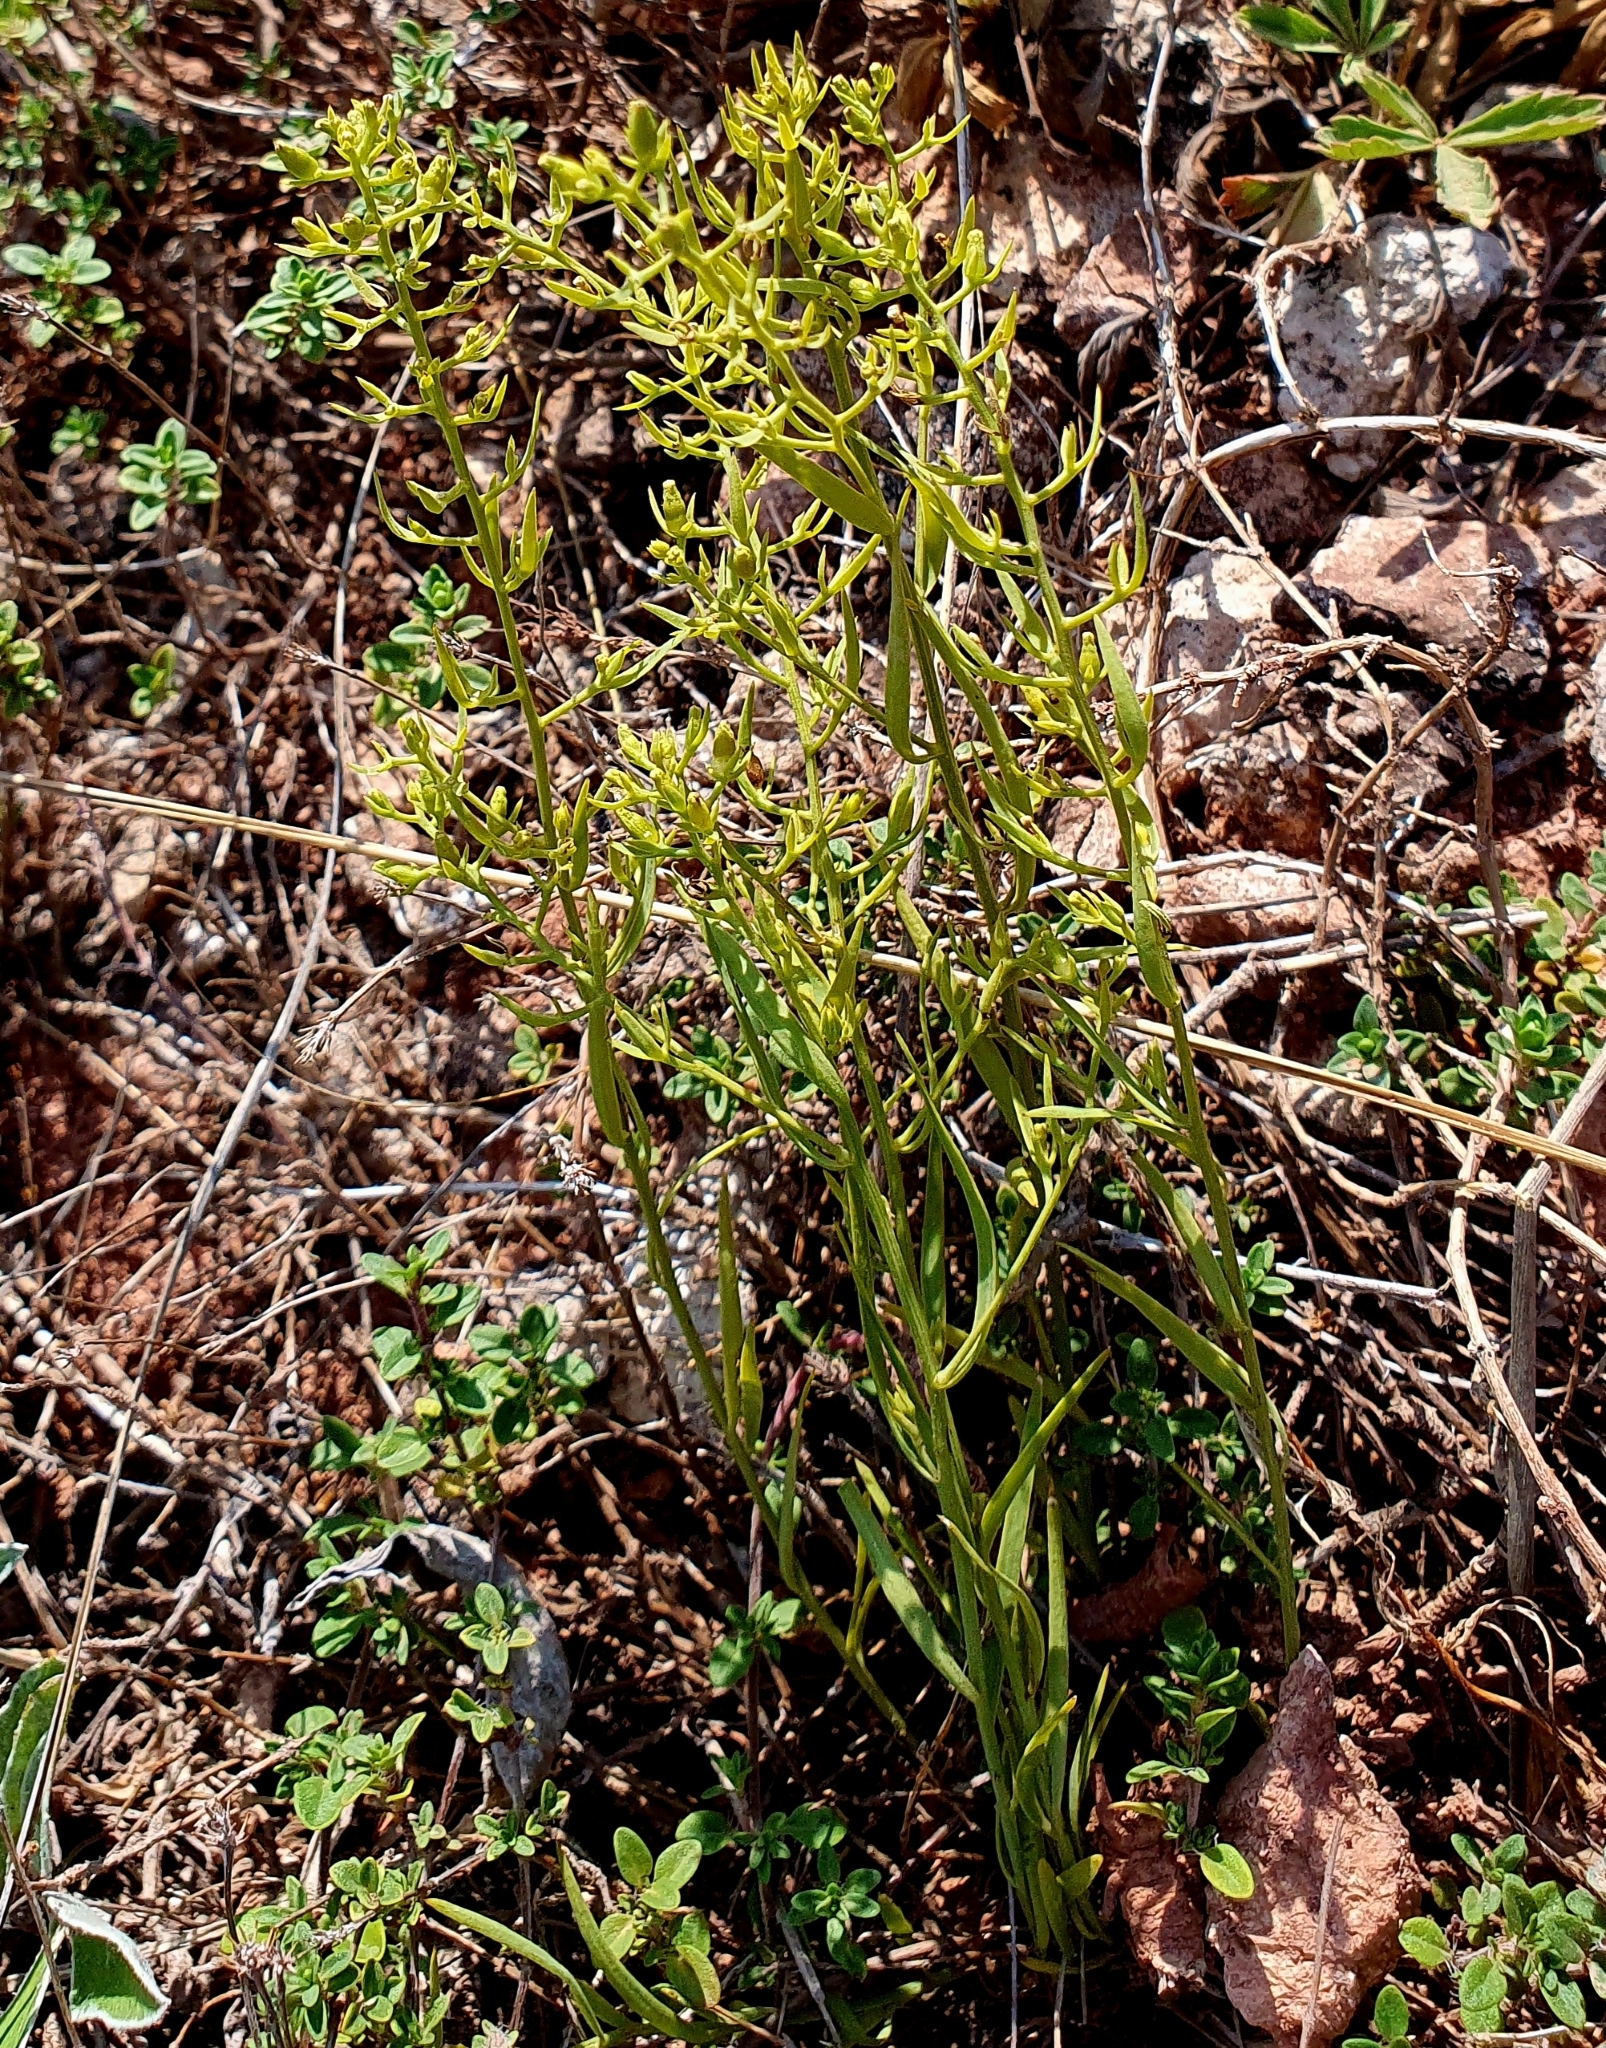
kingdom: Plantae
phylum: Tracheophyta
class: Magnoliopsida
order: Santalales
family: Thesiaceae
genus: Thesium
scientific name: Thesium ramosum
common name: Field thesium
